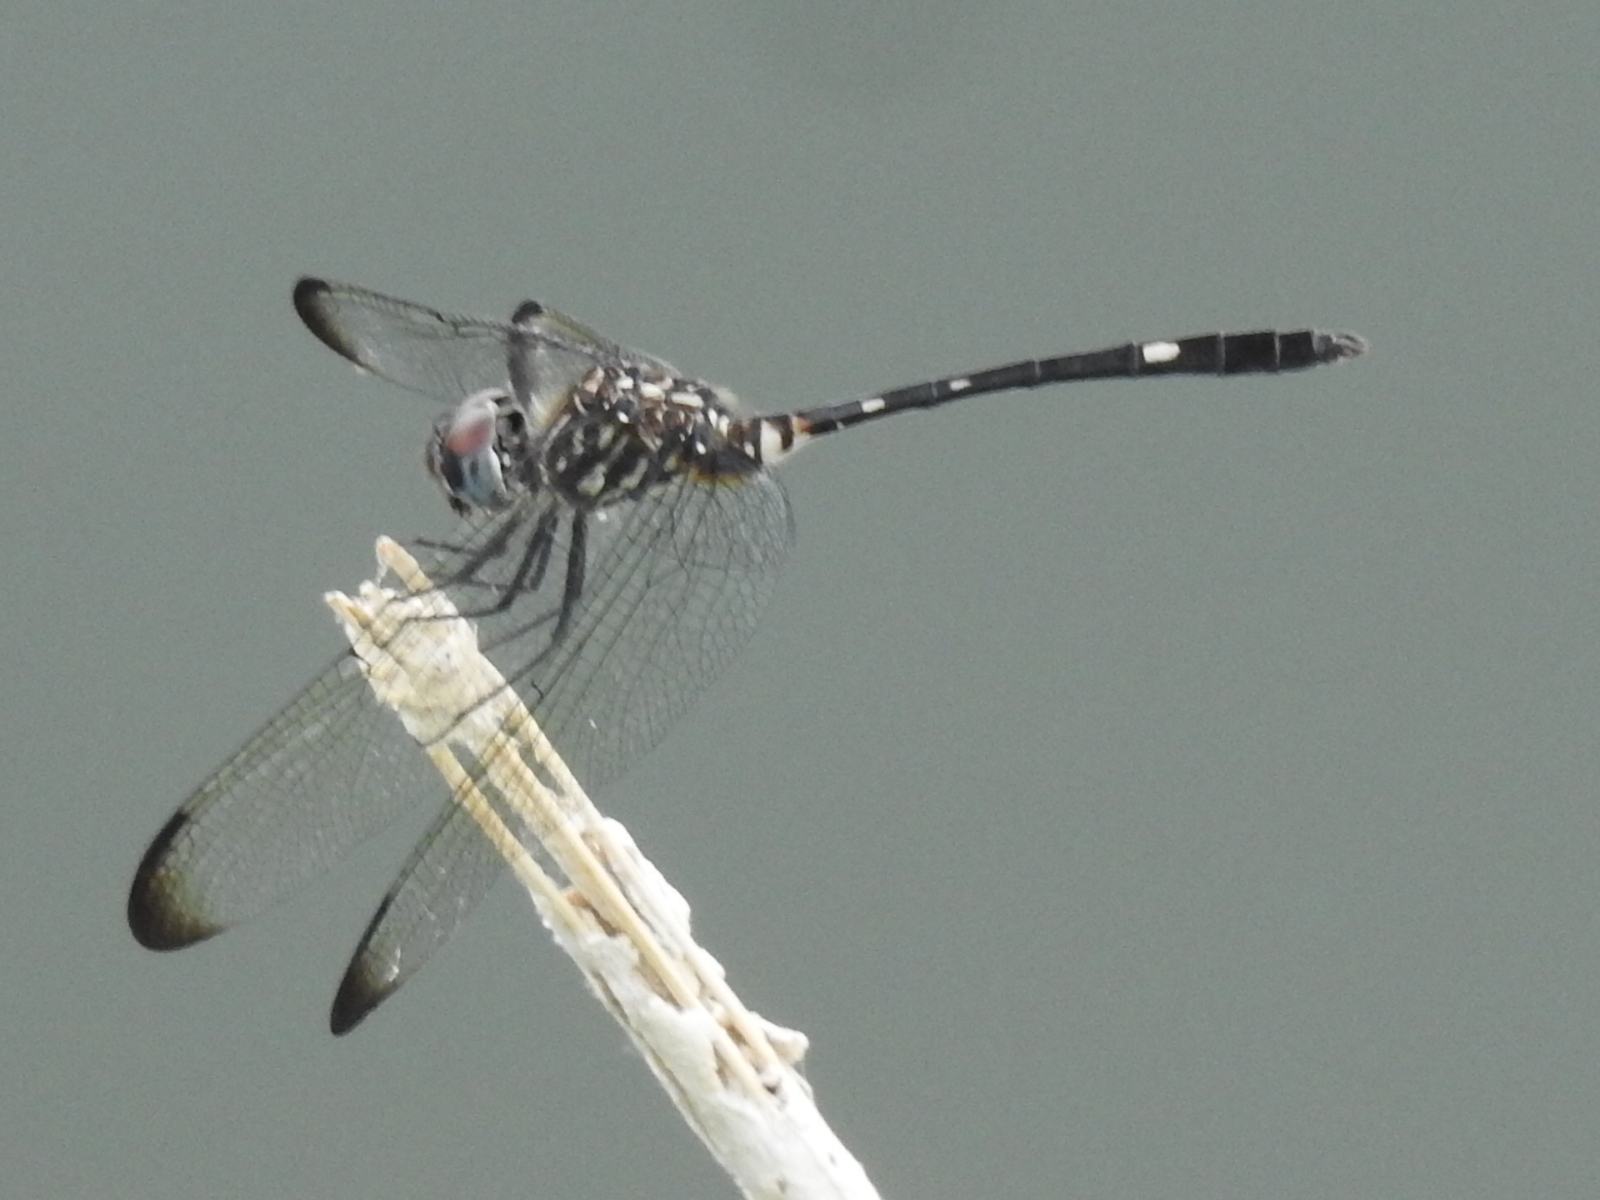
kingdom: Animalia
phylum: Arthropoda
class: Insecta
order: Odonata
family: Libellulidae
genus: Dythemis
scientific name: Dythemis velox
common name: Swift setwing
